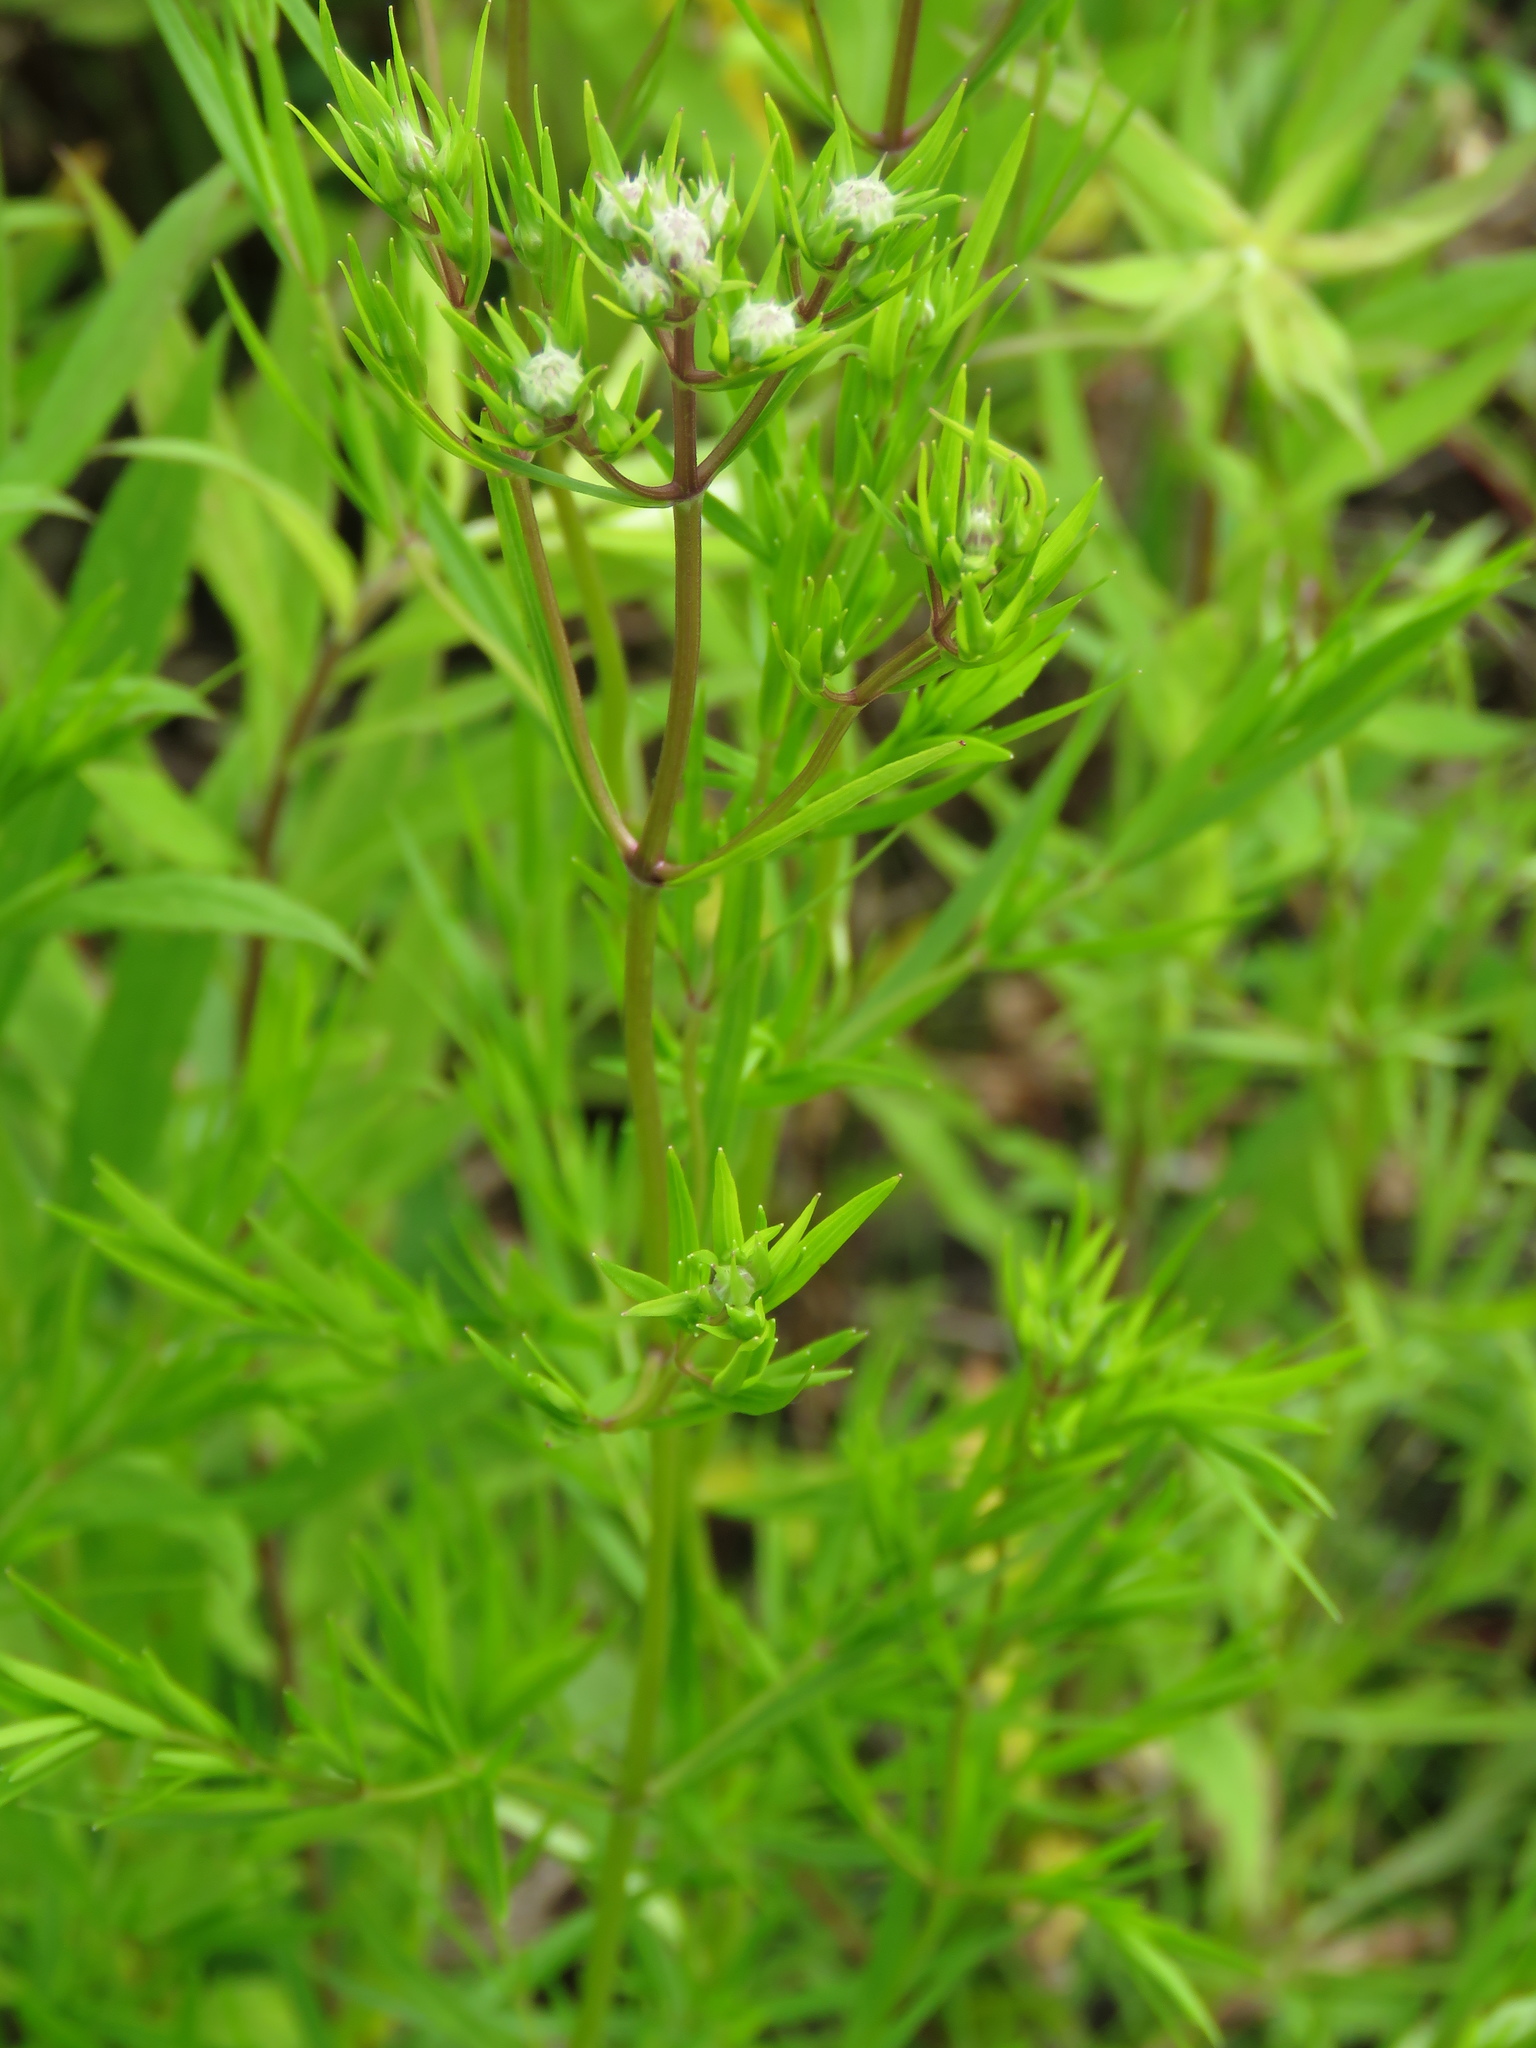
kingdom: Plantae
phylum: Tracheophyta
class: Magnoliopsida
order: Lamiales
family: Lamiaceae
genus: Pycnanthemum
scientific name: Pycnanthemum tenuifolium
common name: Narrow-leaf mountain-mint
